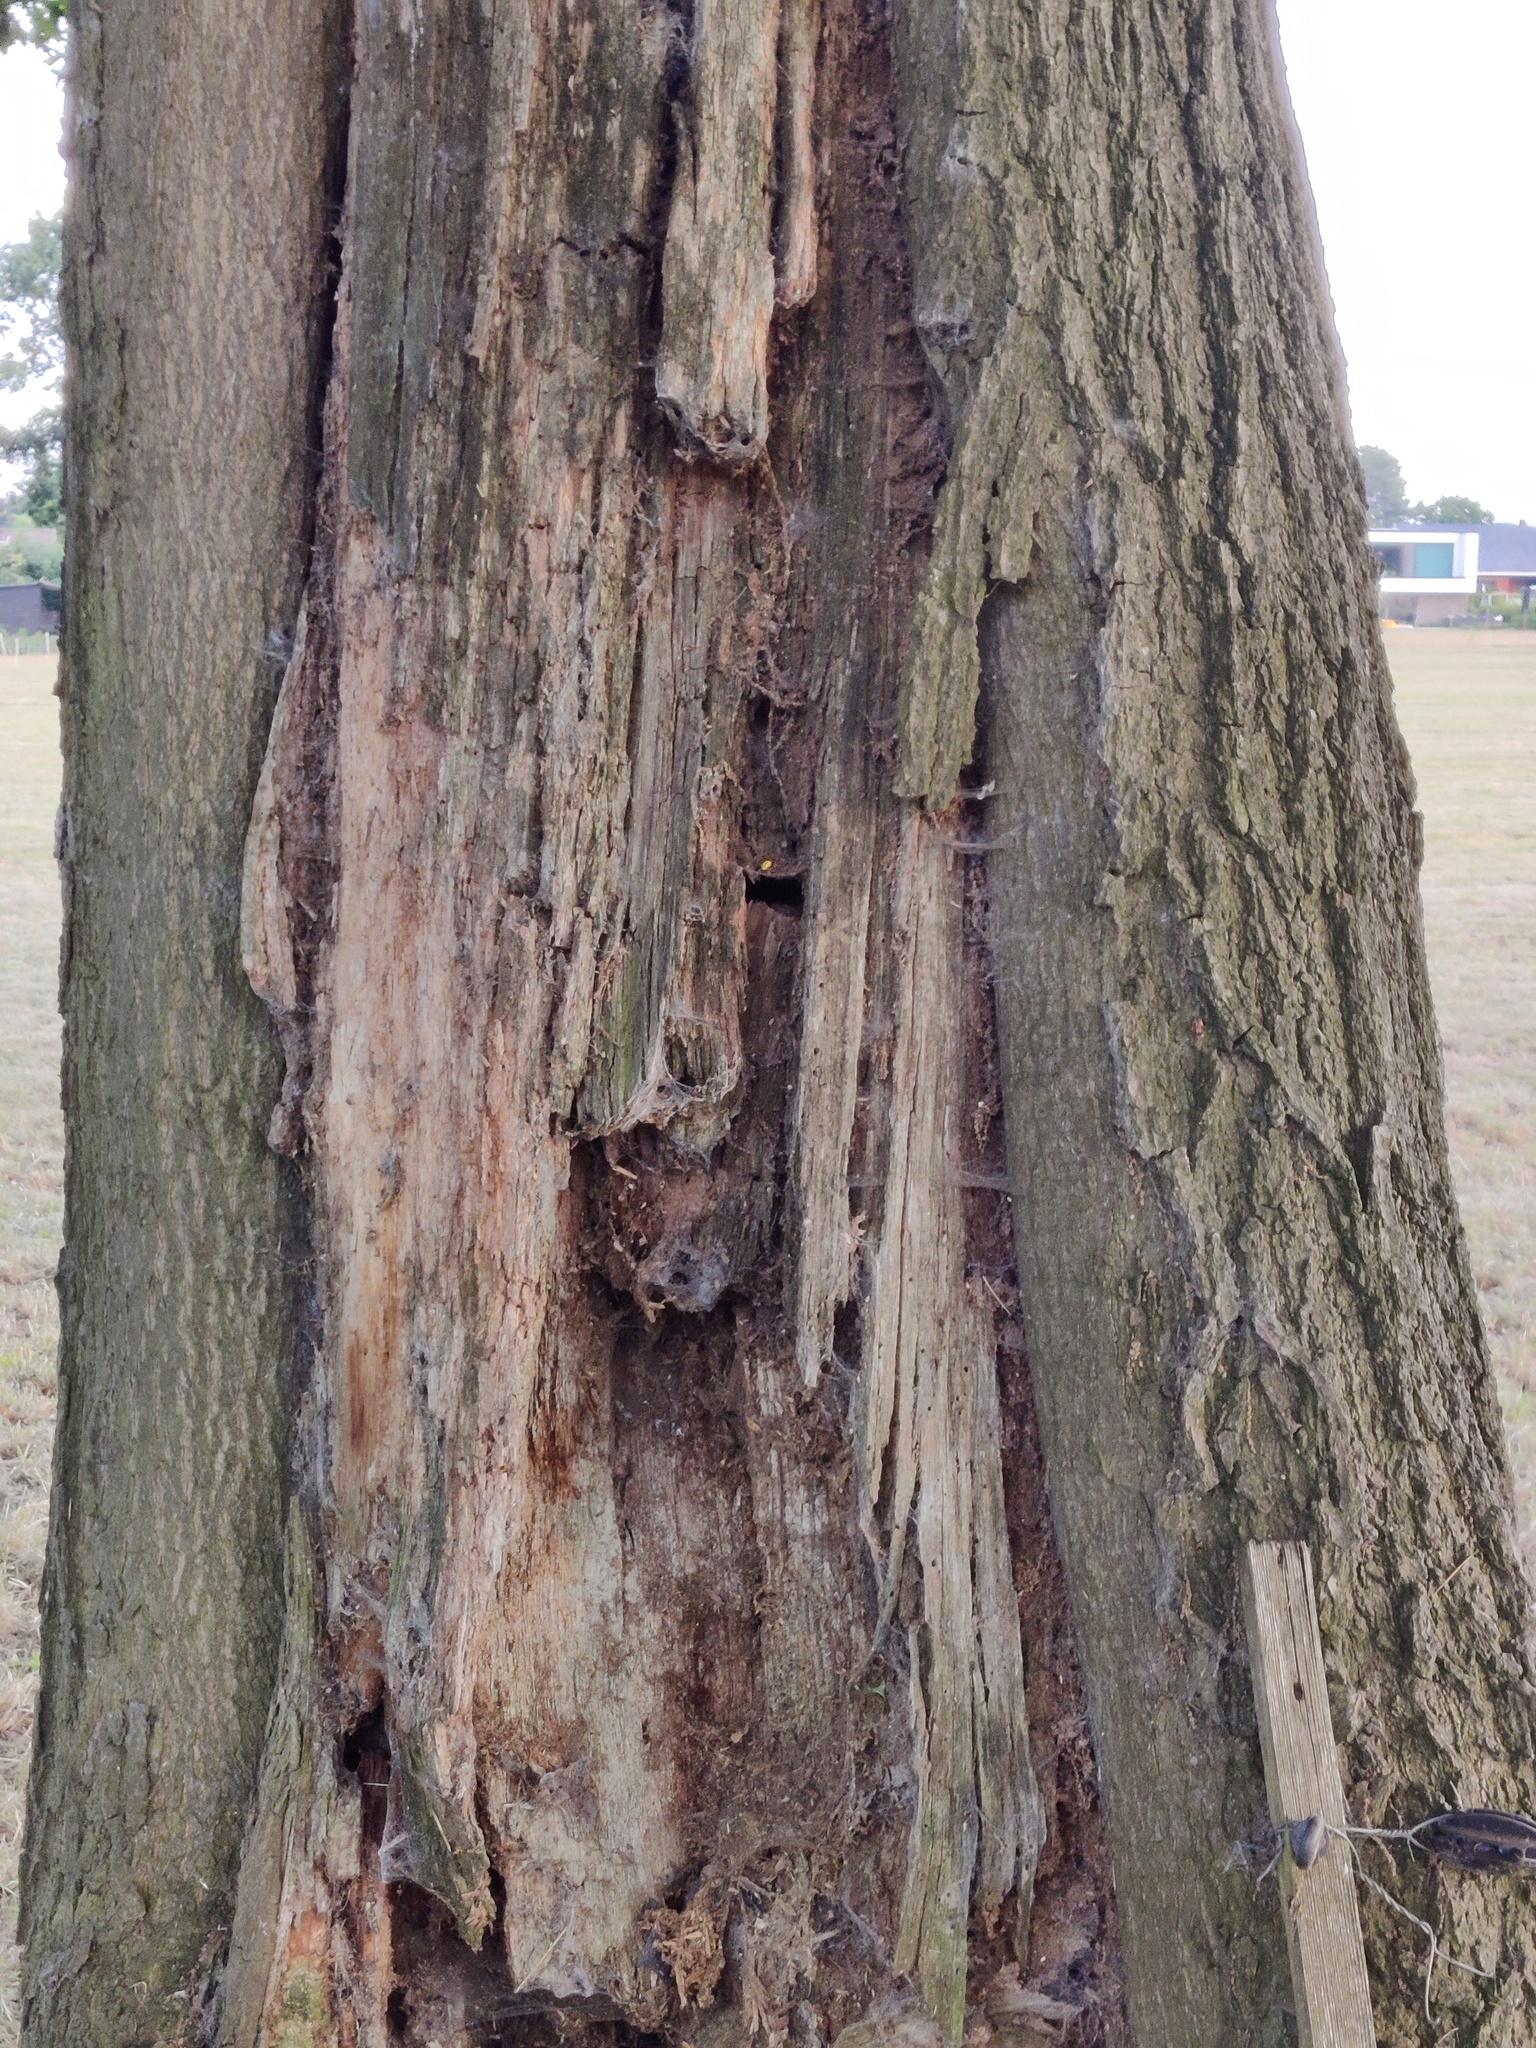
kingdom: Animalia
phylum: Arthropoda
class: Insecta
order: Hymenoptera
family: Vespidae
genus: Vespa
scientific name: Vespa crabro
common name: Hornet
